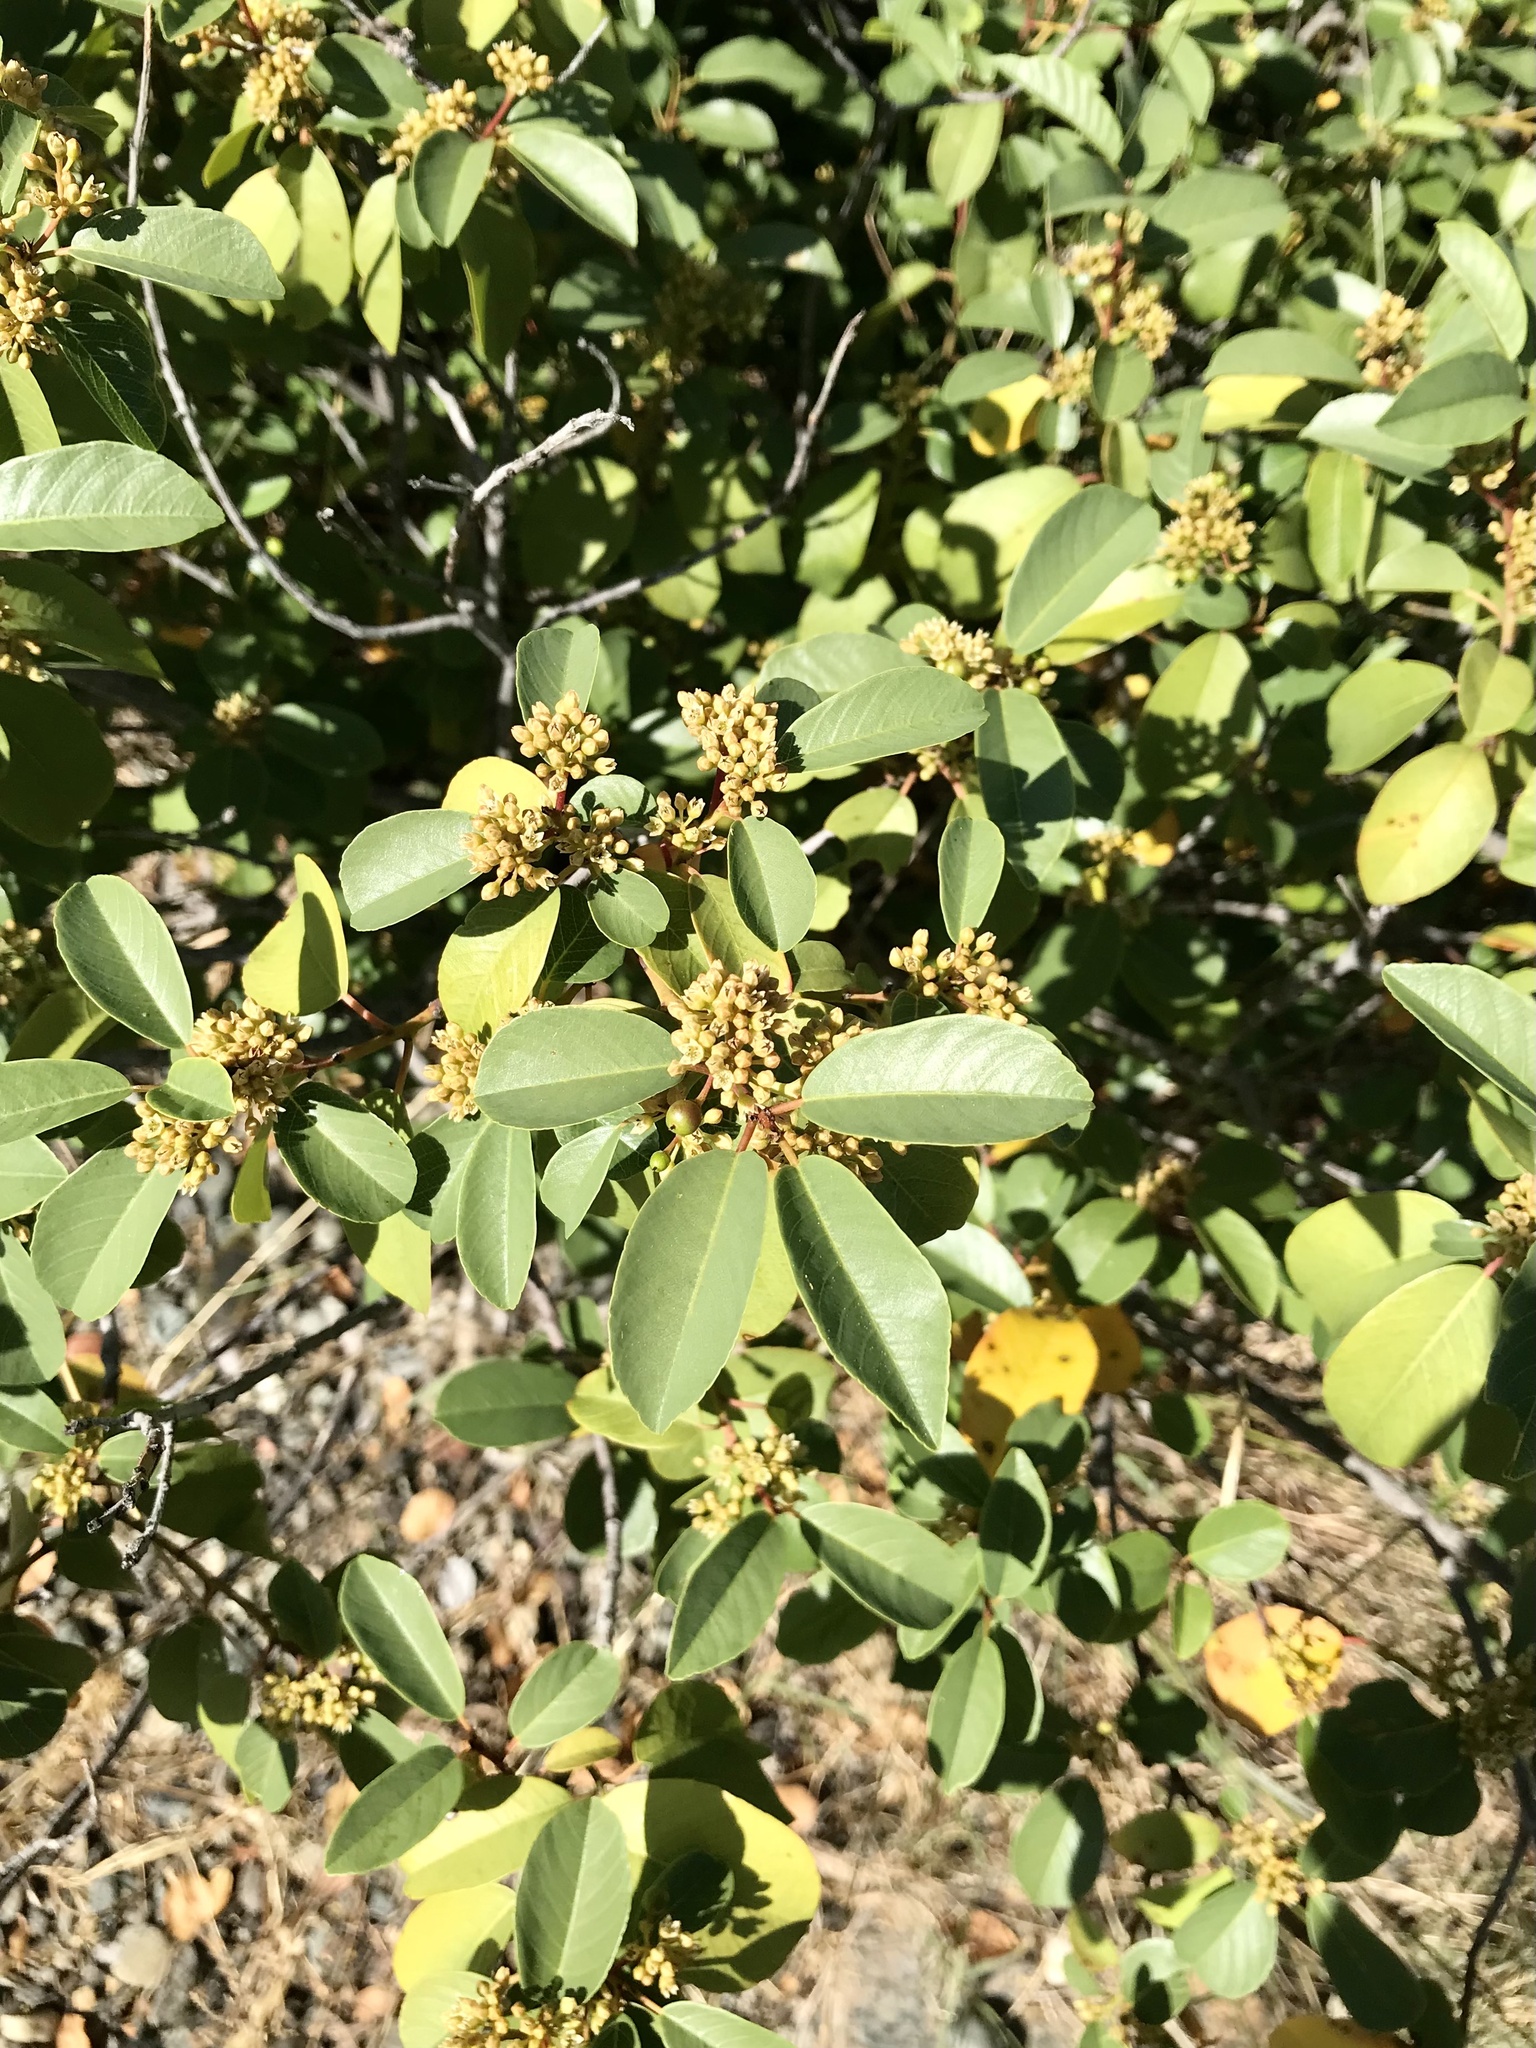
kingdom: Plantae
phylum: Tracheophyta
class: Magnoliopsida
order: Rosales
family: Rhamnaceae
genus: Frangula
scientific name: Frangula californica
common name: California buckthorn
